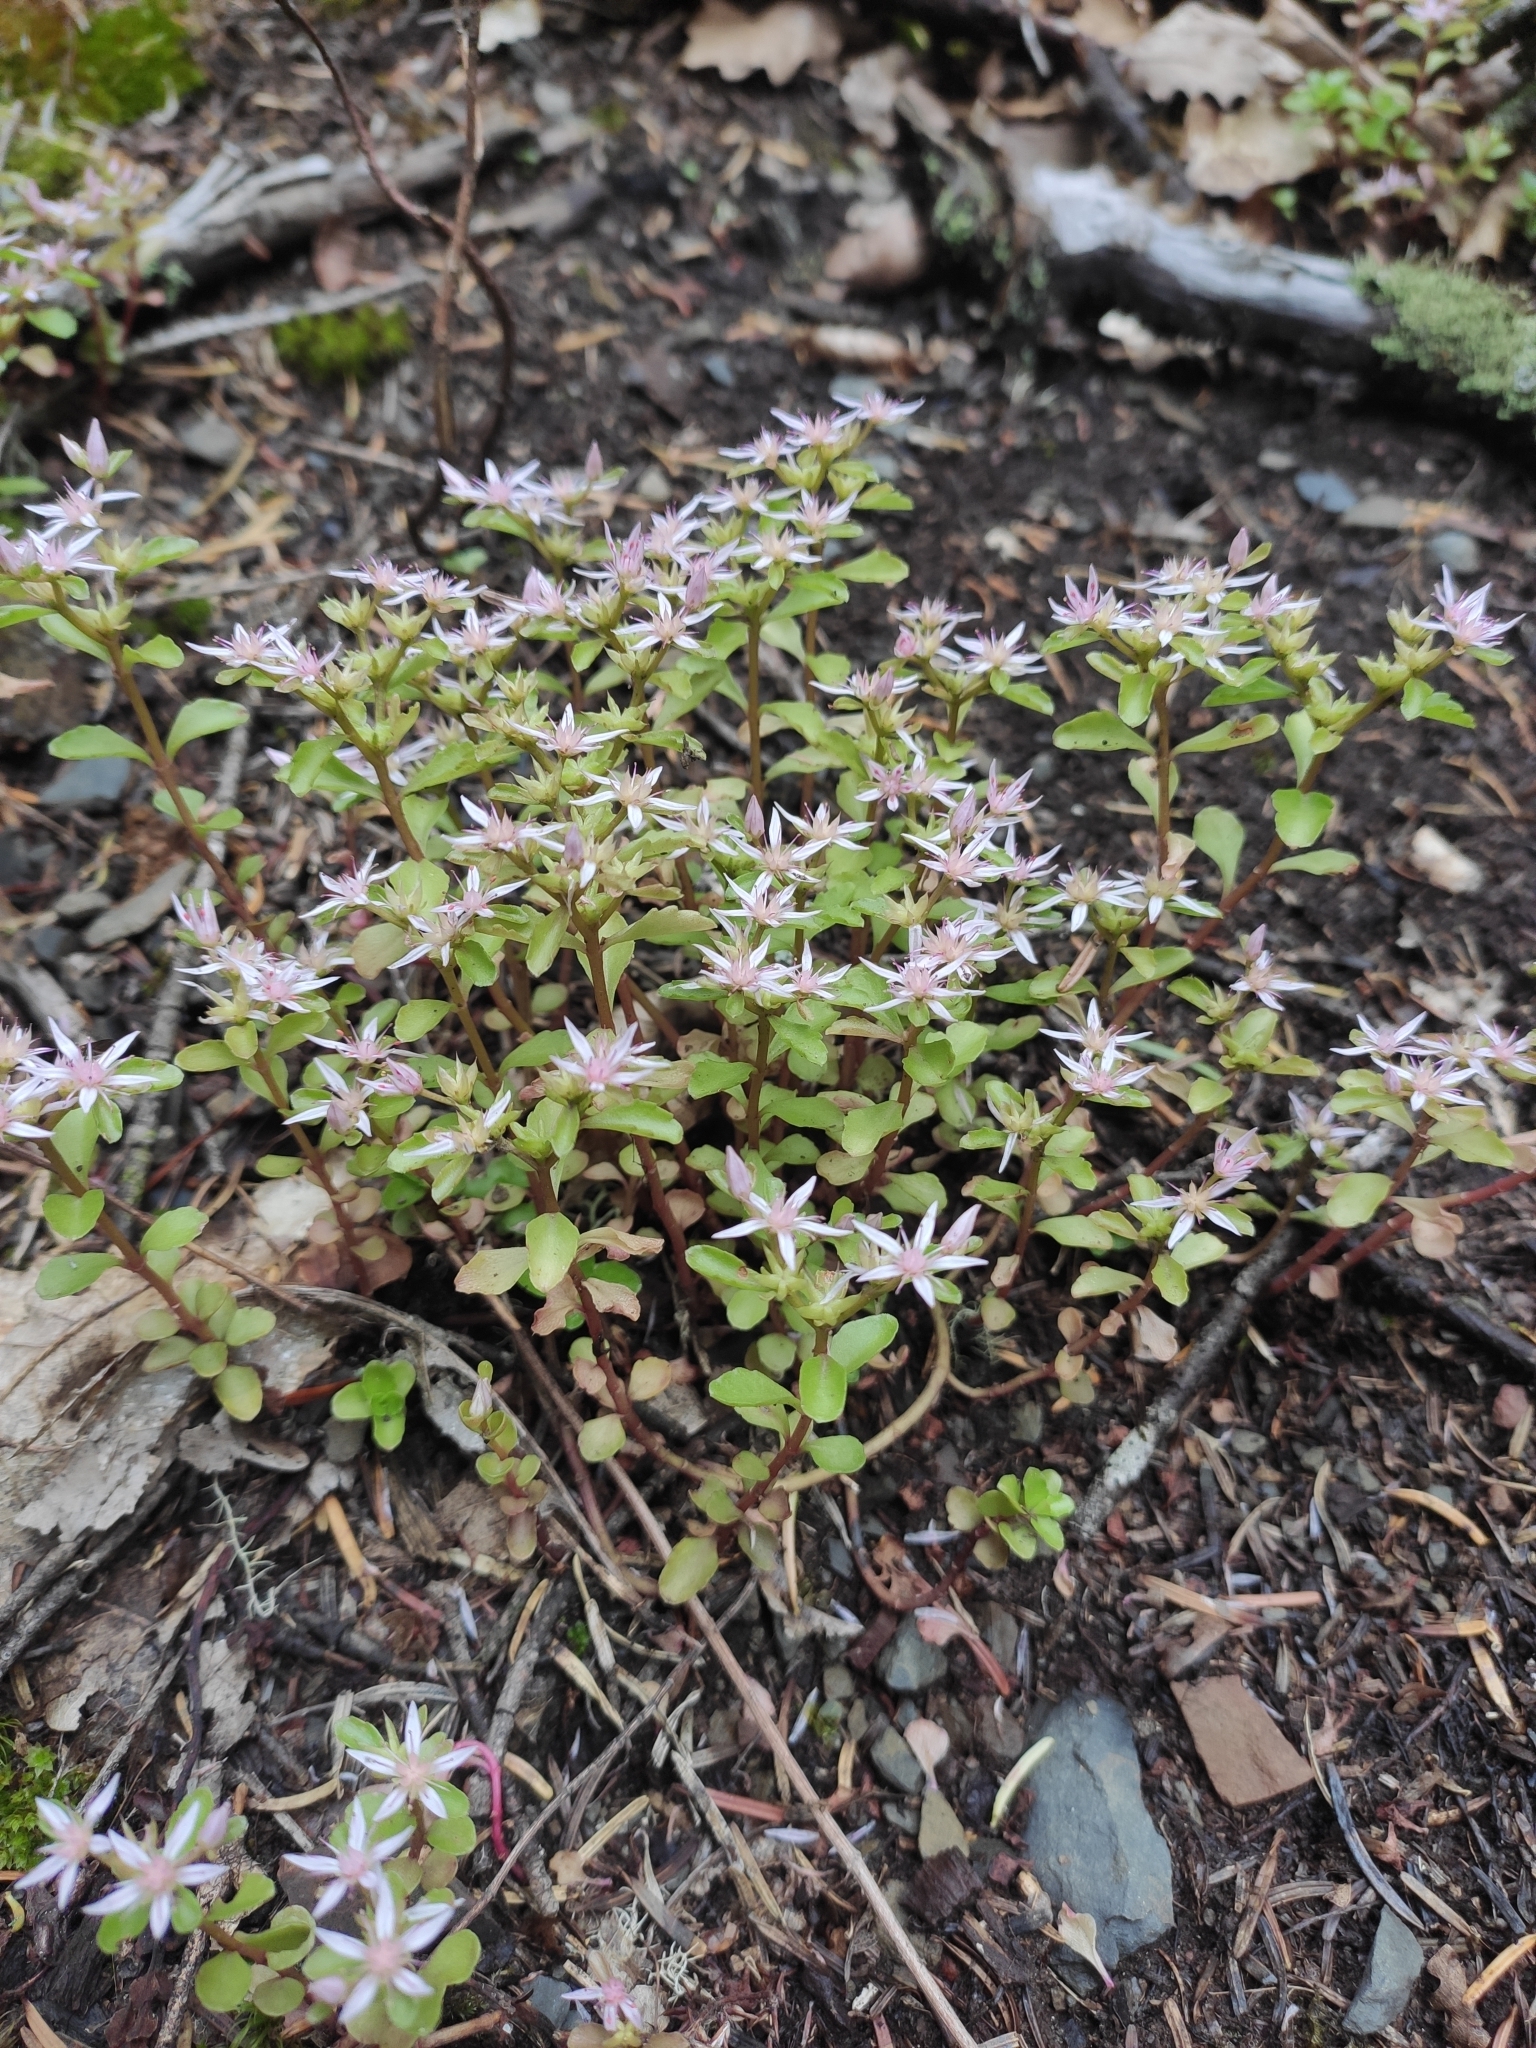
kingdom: Plantae
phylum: Tracheophyta
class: Magnoliopsida
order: Saxifragales
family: Crassulaceae
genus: Phedimus
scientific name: Phedimus stolonifer
